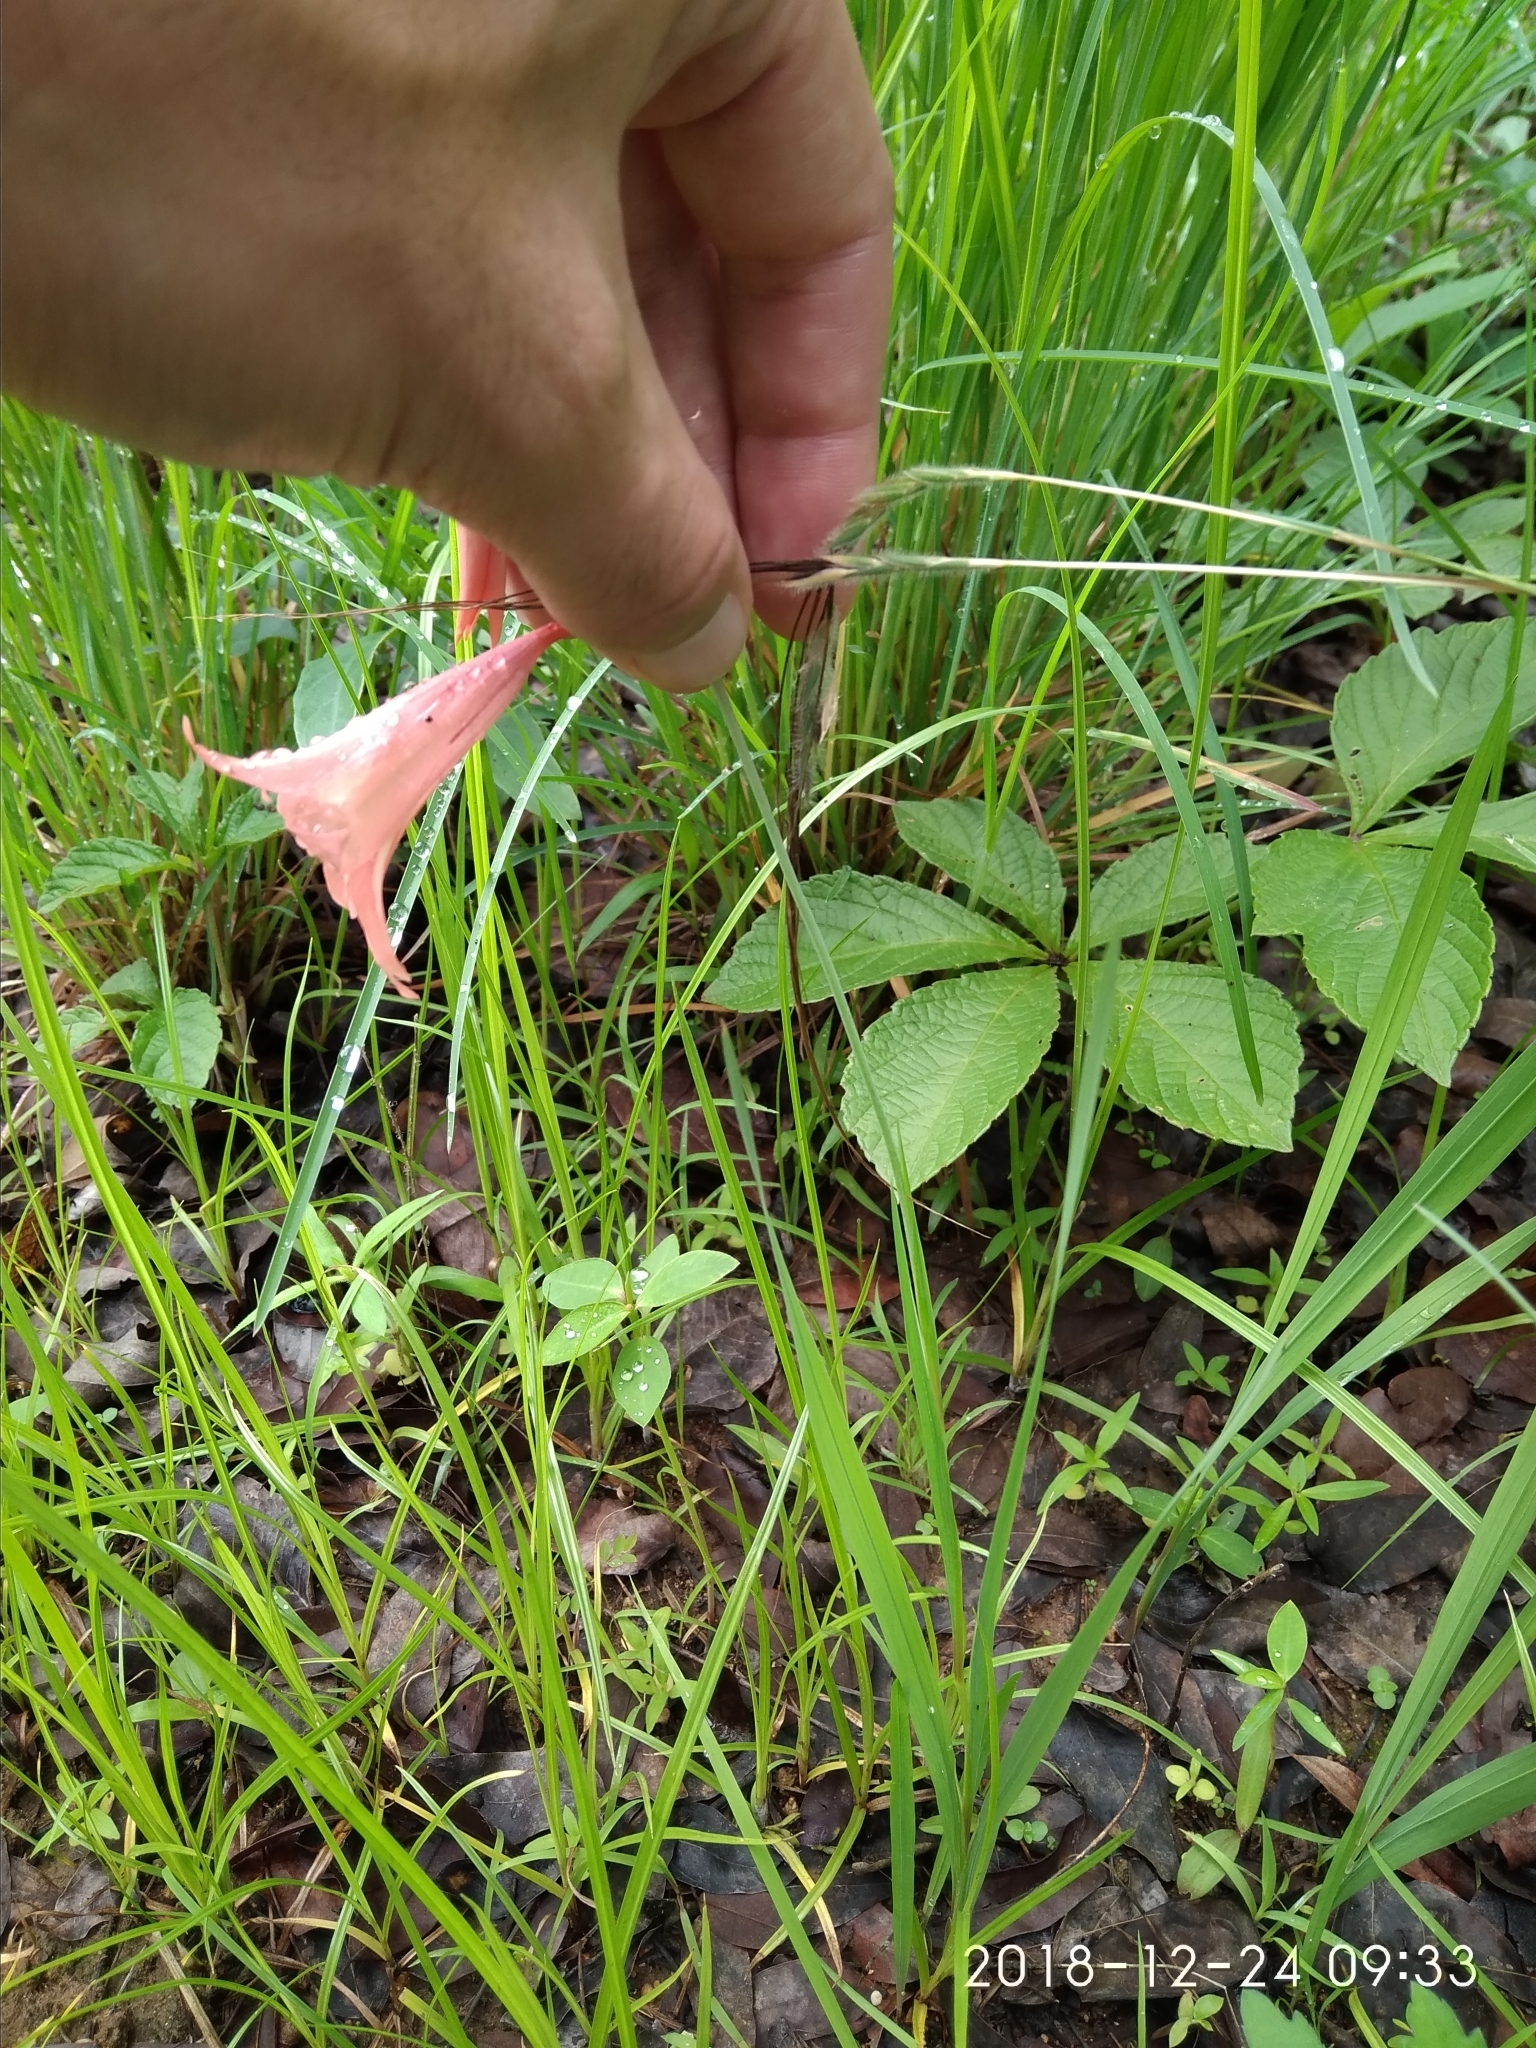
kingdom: Plantae
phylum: Tracheophyta
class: Liliopsida
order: Asparagales
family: Iridaceae
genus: Gladiolus
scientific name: Gladiolus oligophlebius
